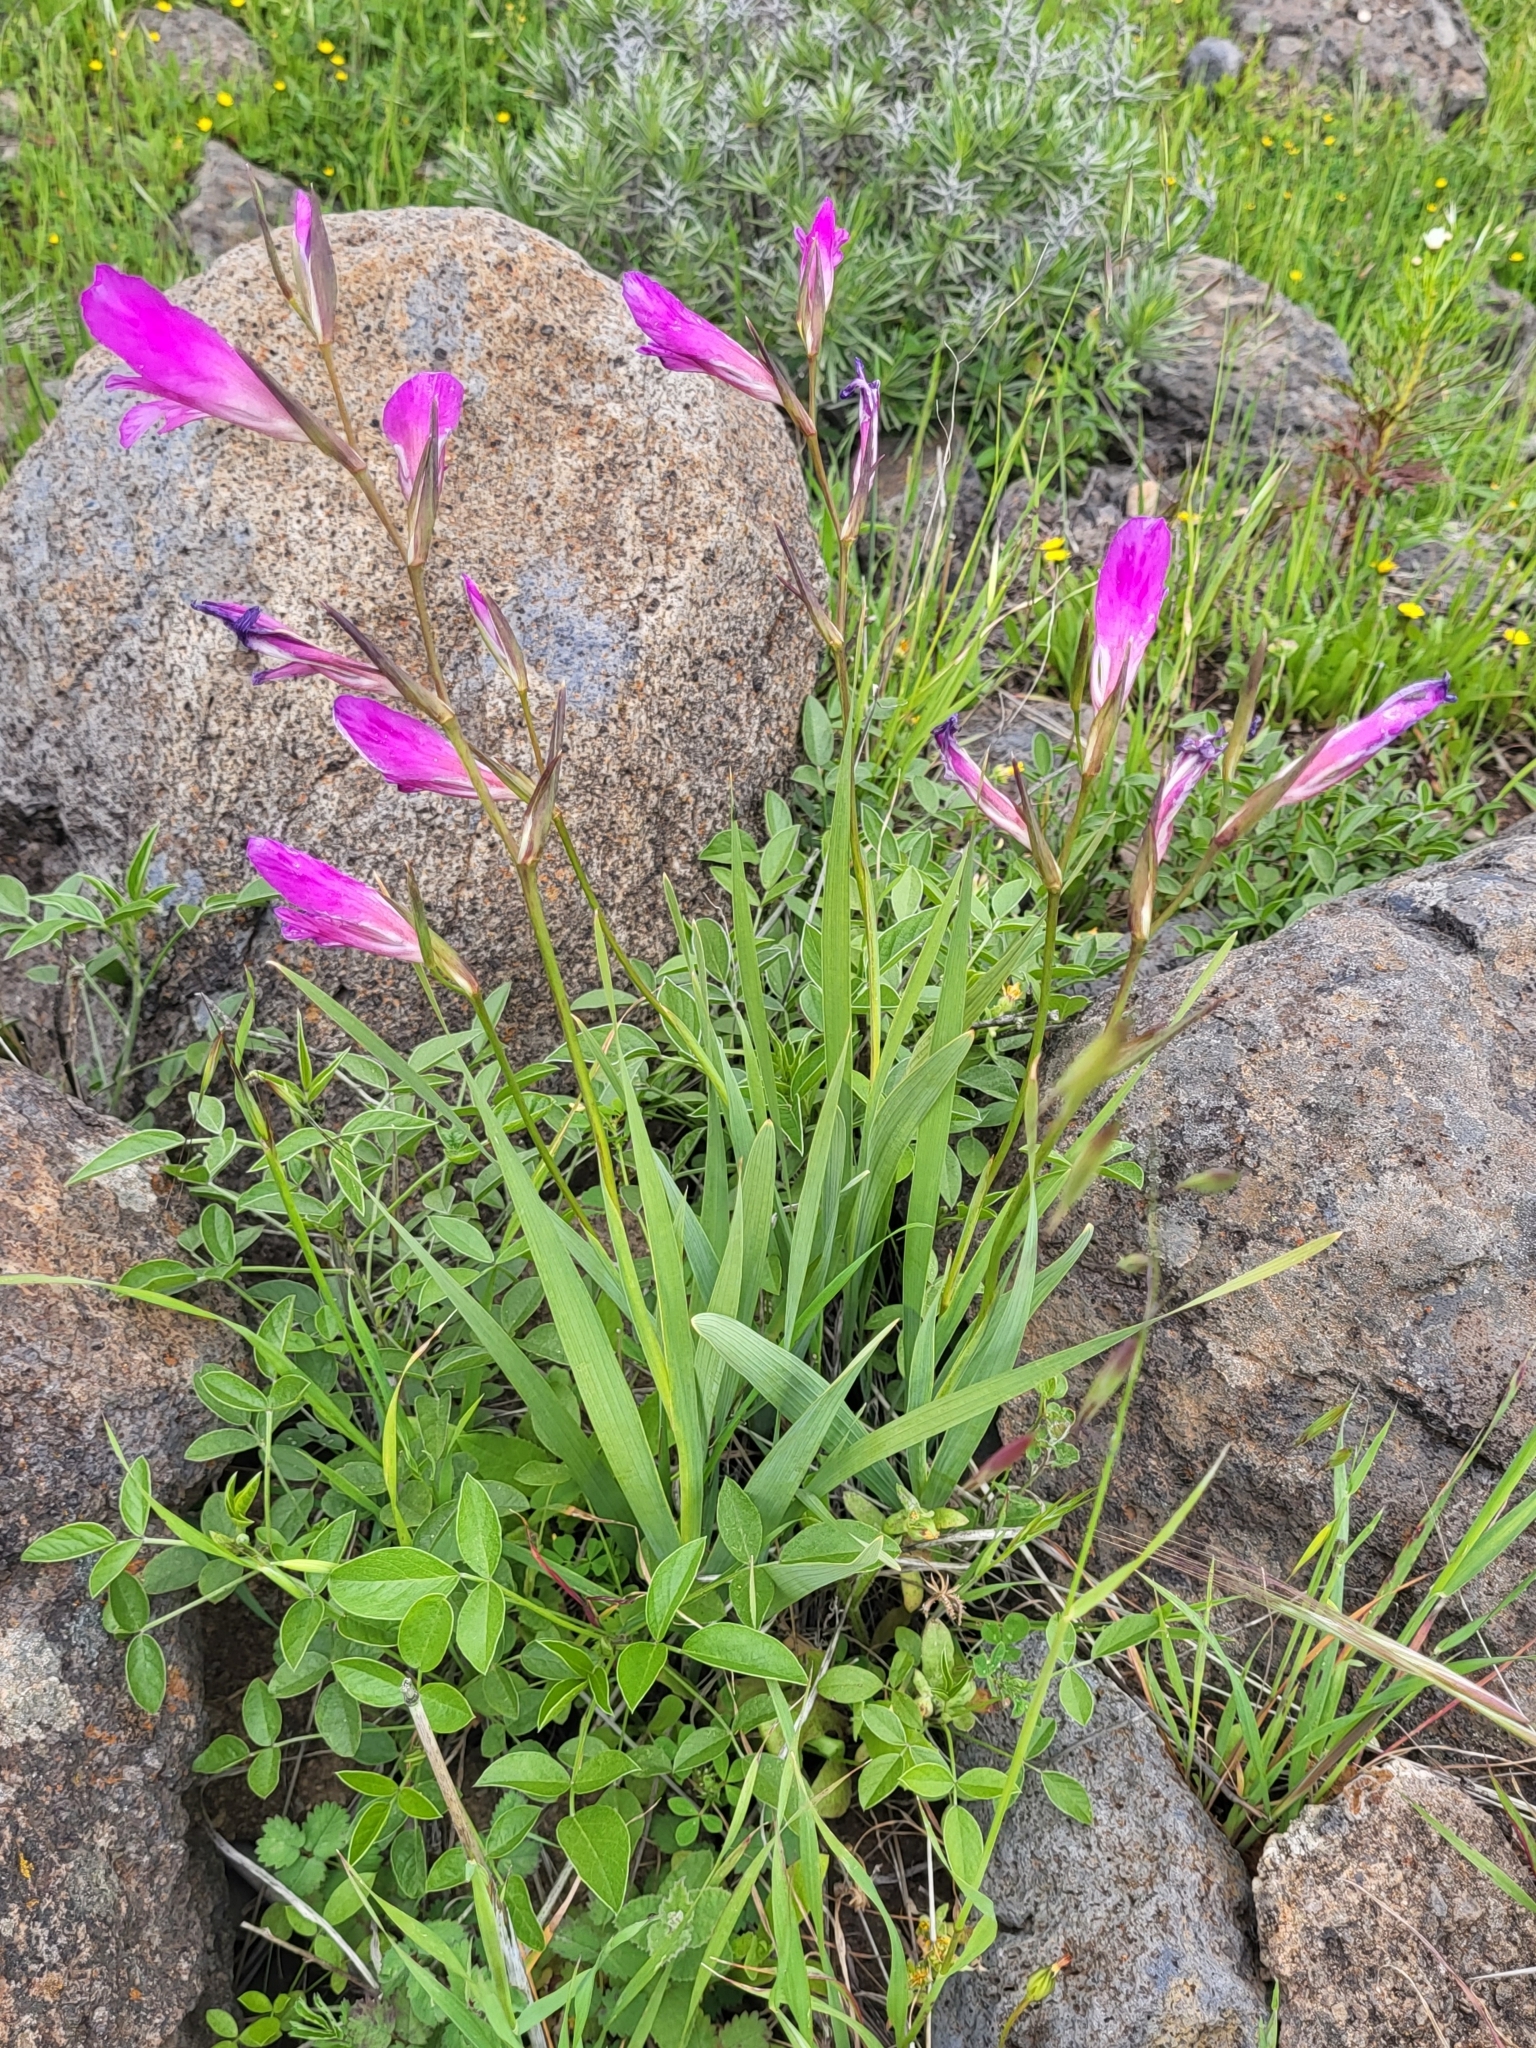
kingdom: Plantae
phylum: Tracheophyta
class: Liliopsida
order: Asparagales
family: Iridaceae
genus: Gladiolus
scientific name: Gladiolus italicus
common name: Field gladiolus
